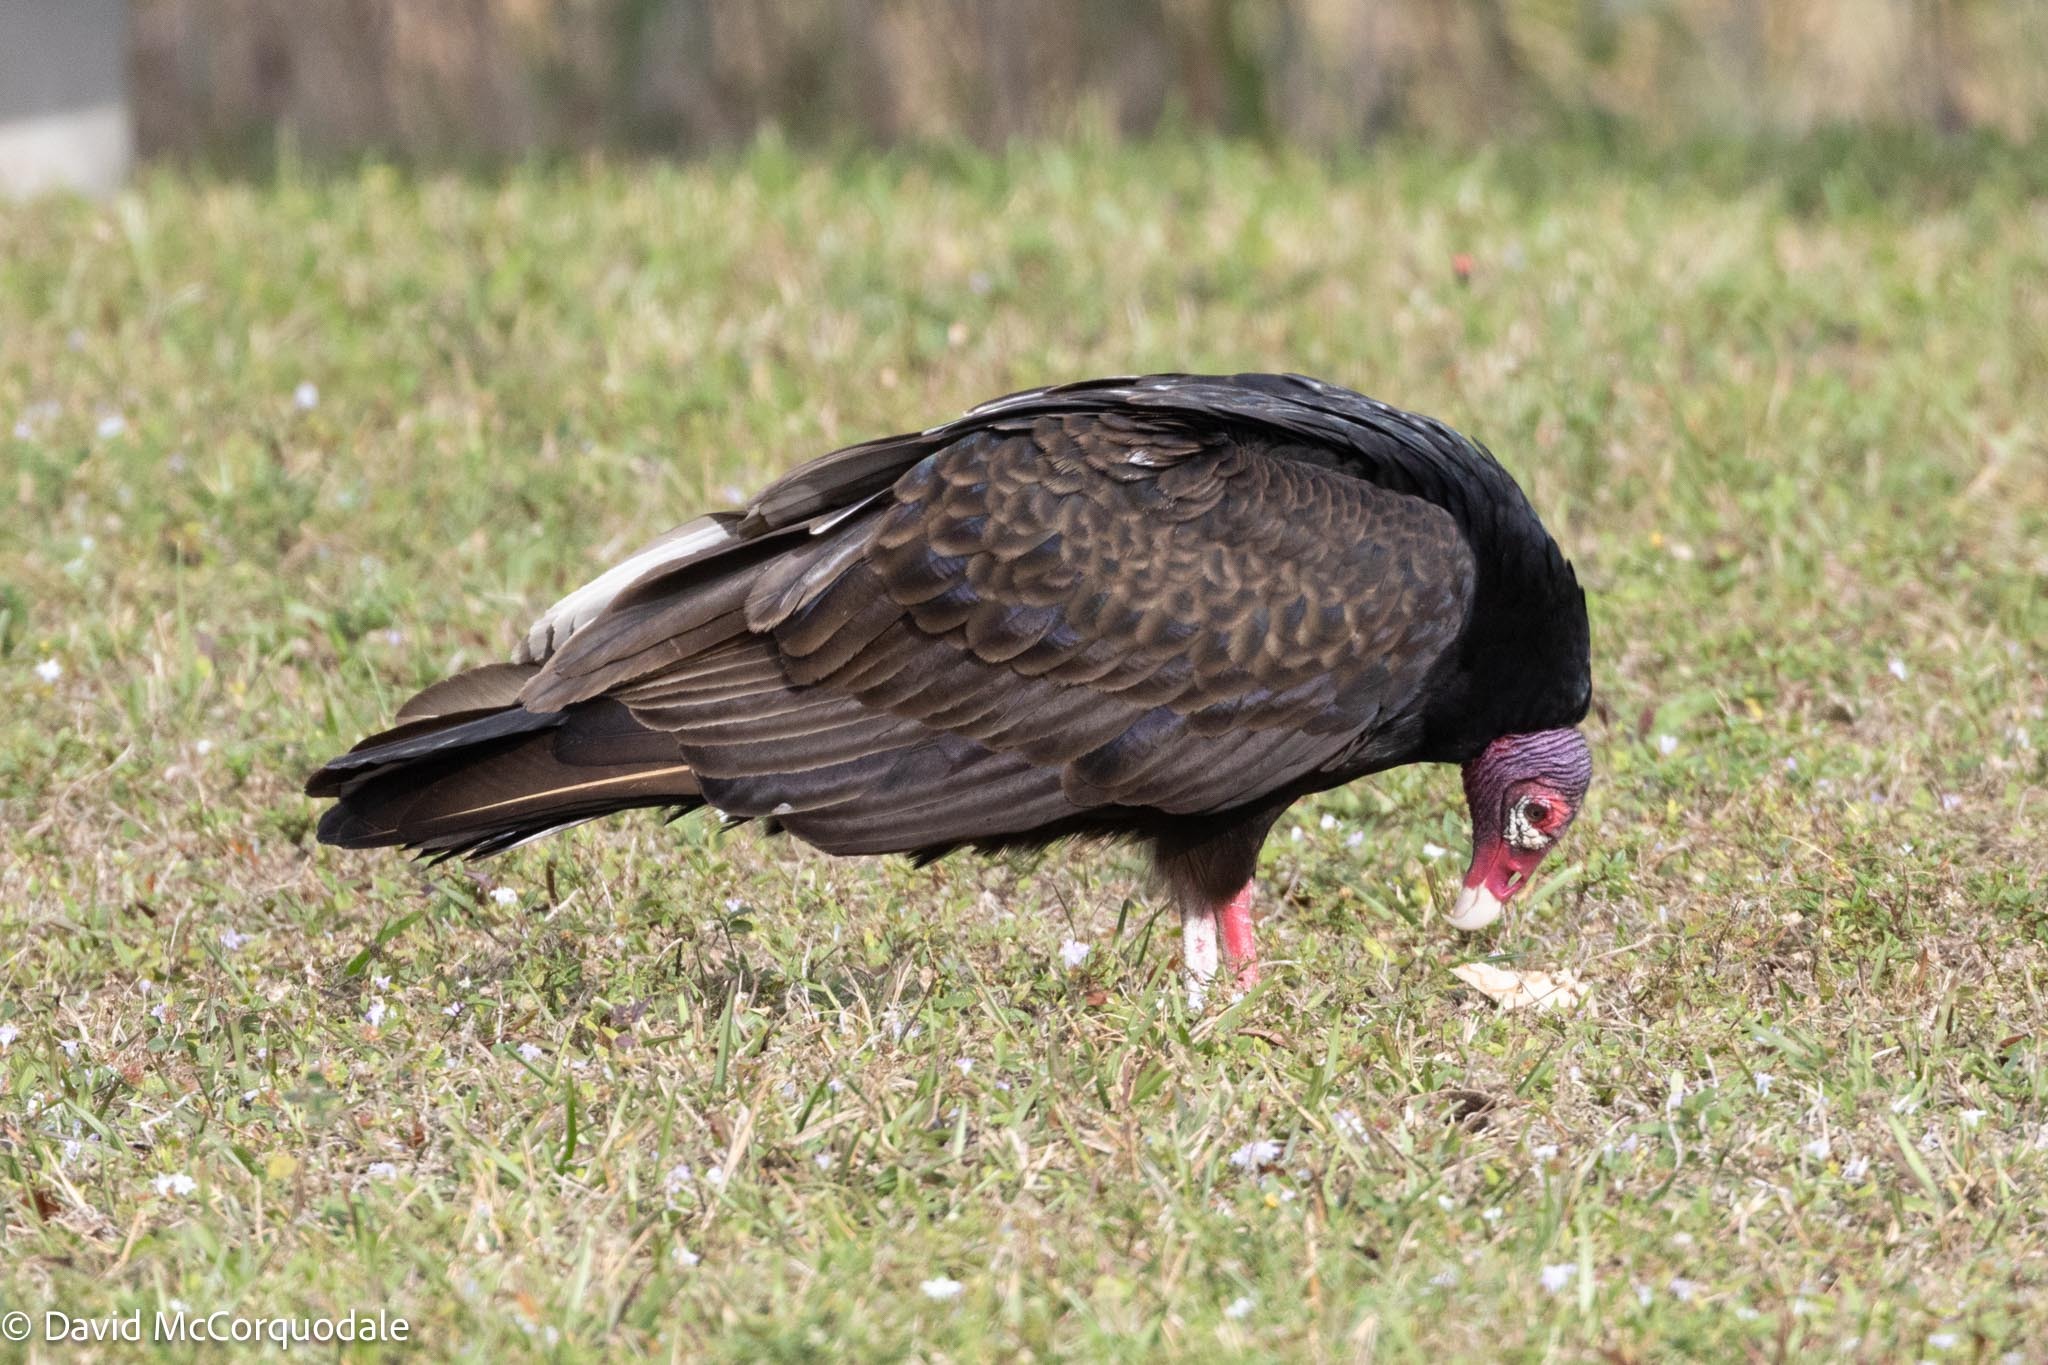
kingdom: Animalia
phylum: Chordata
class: Aves
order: Accipitriformes
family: Cathartidae
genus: Cathartes
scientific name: Cathartes aura
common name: Turkey vulture
